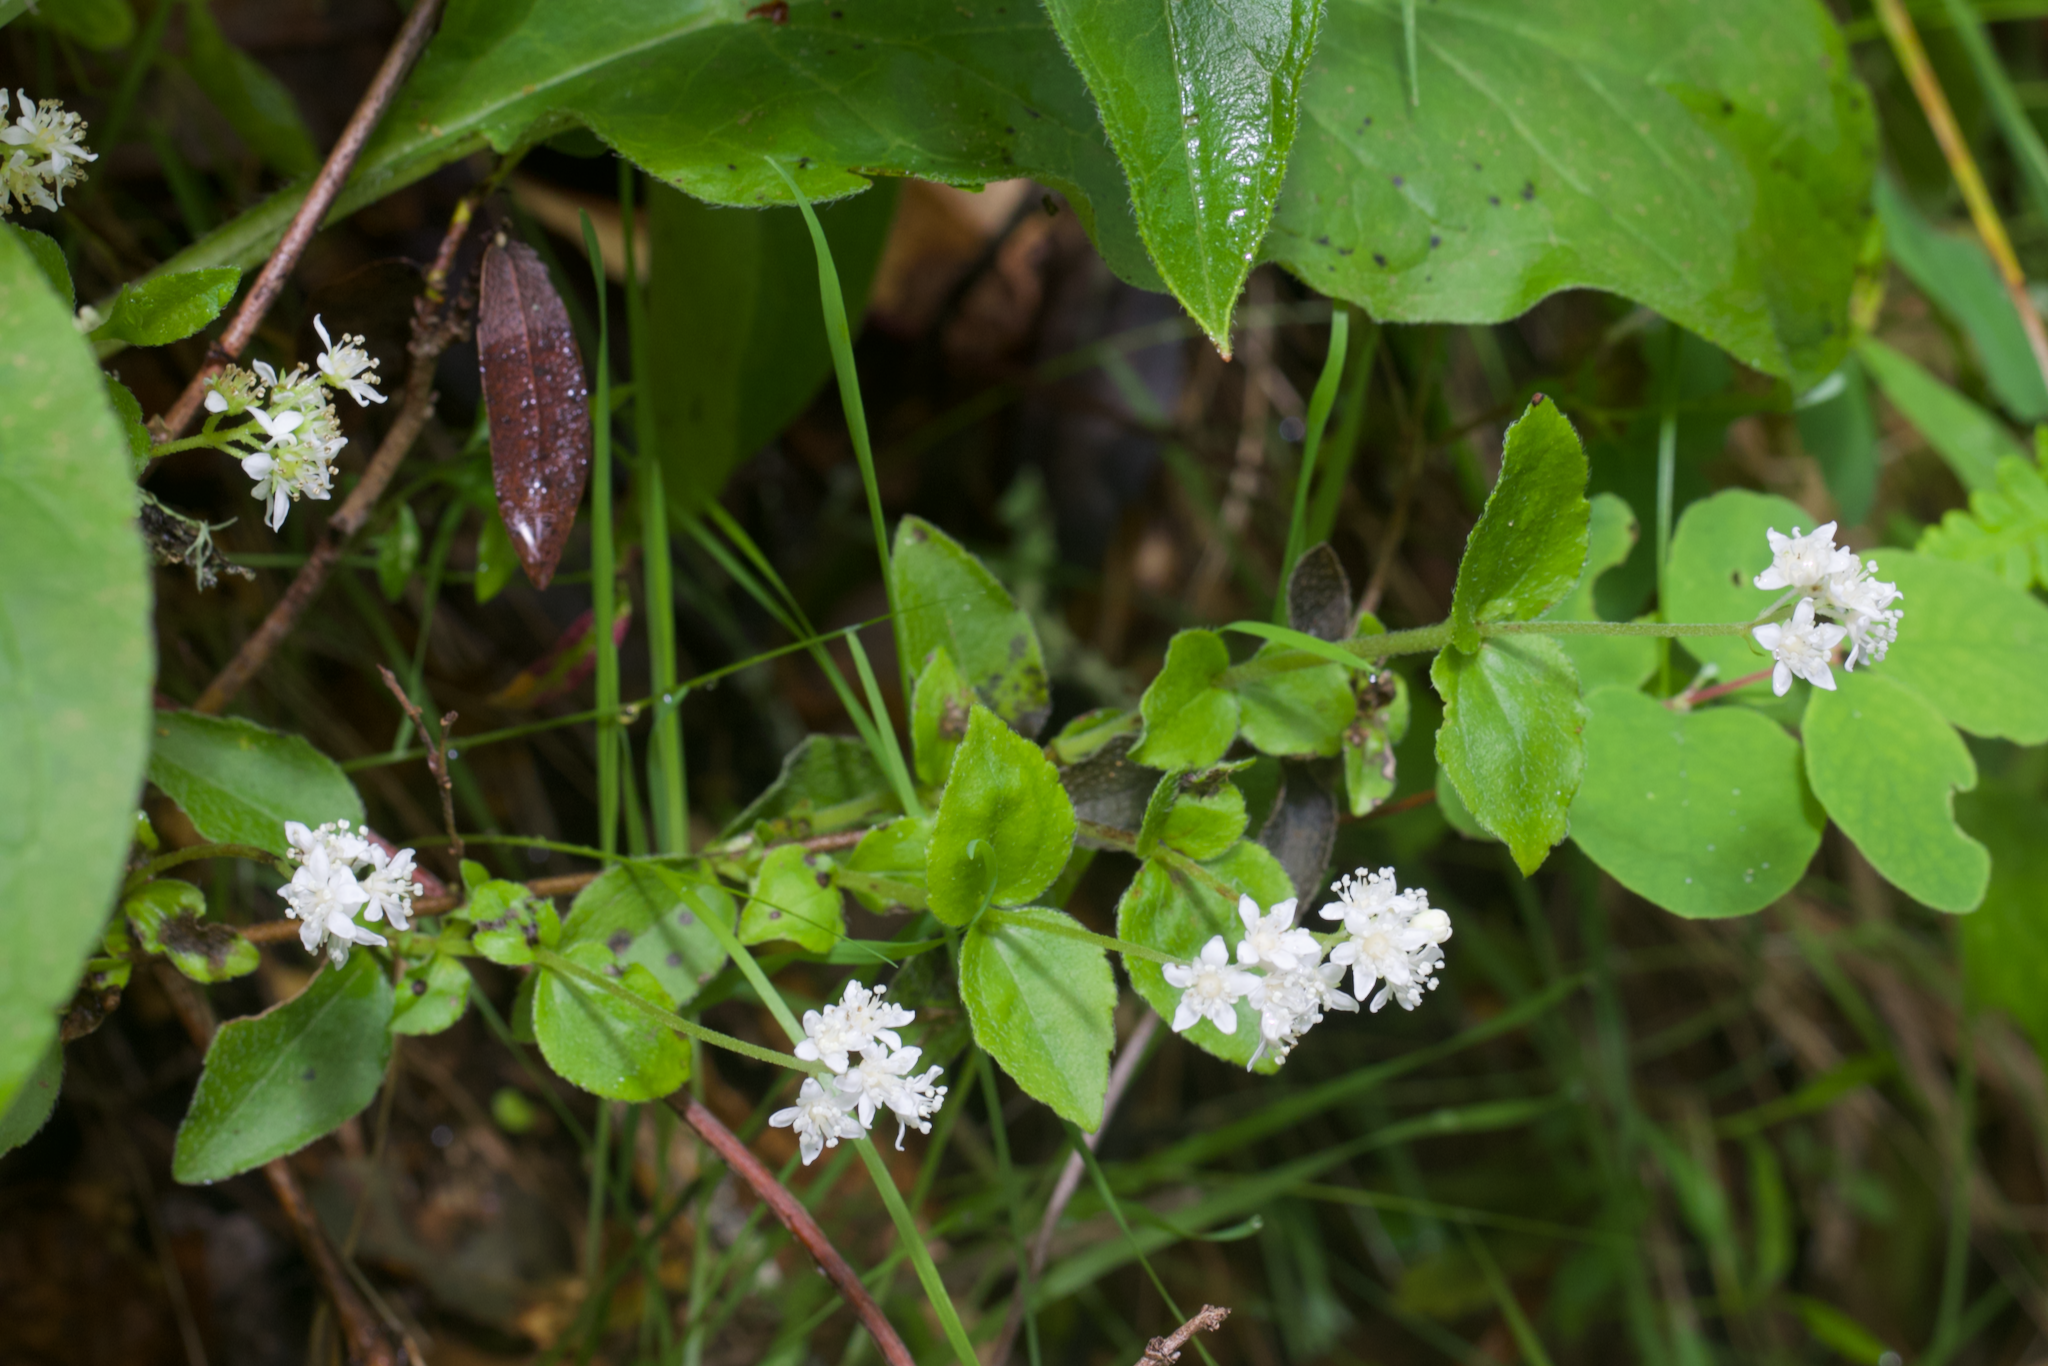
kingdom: Plantae
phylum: Tracheophyta
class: Magnoliopsida
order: Cornales
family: Hydrangeaceae
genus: Whipplea
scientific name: Whipplea modesta
